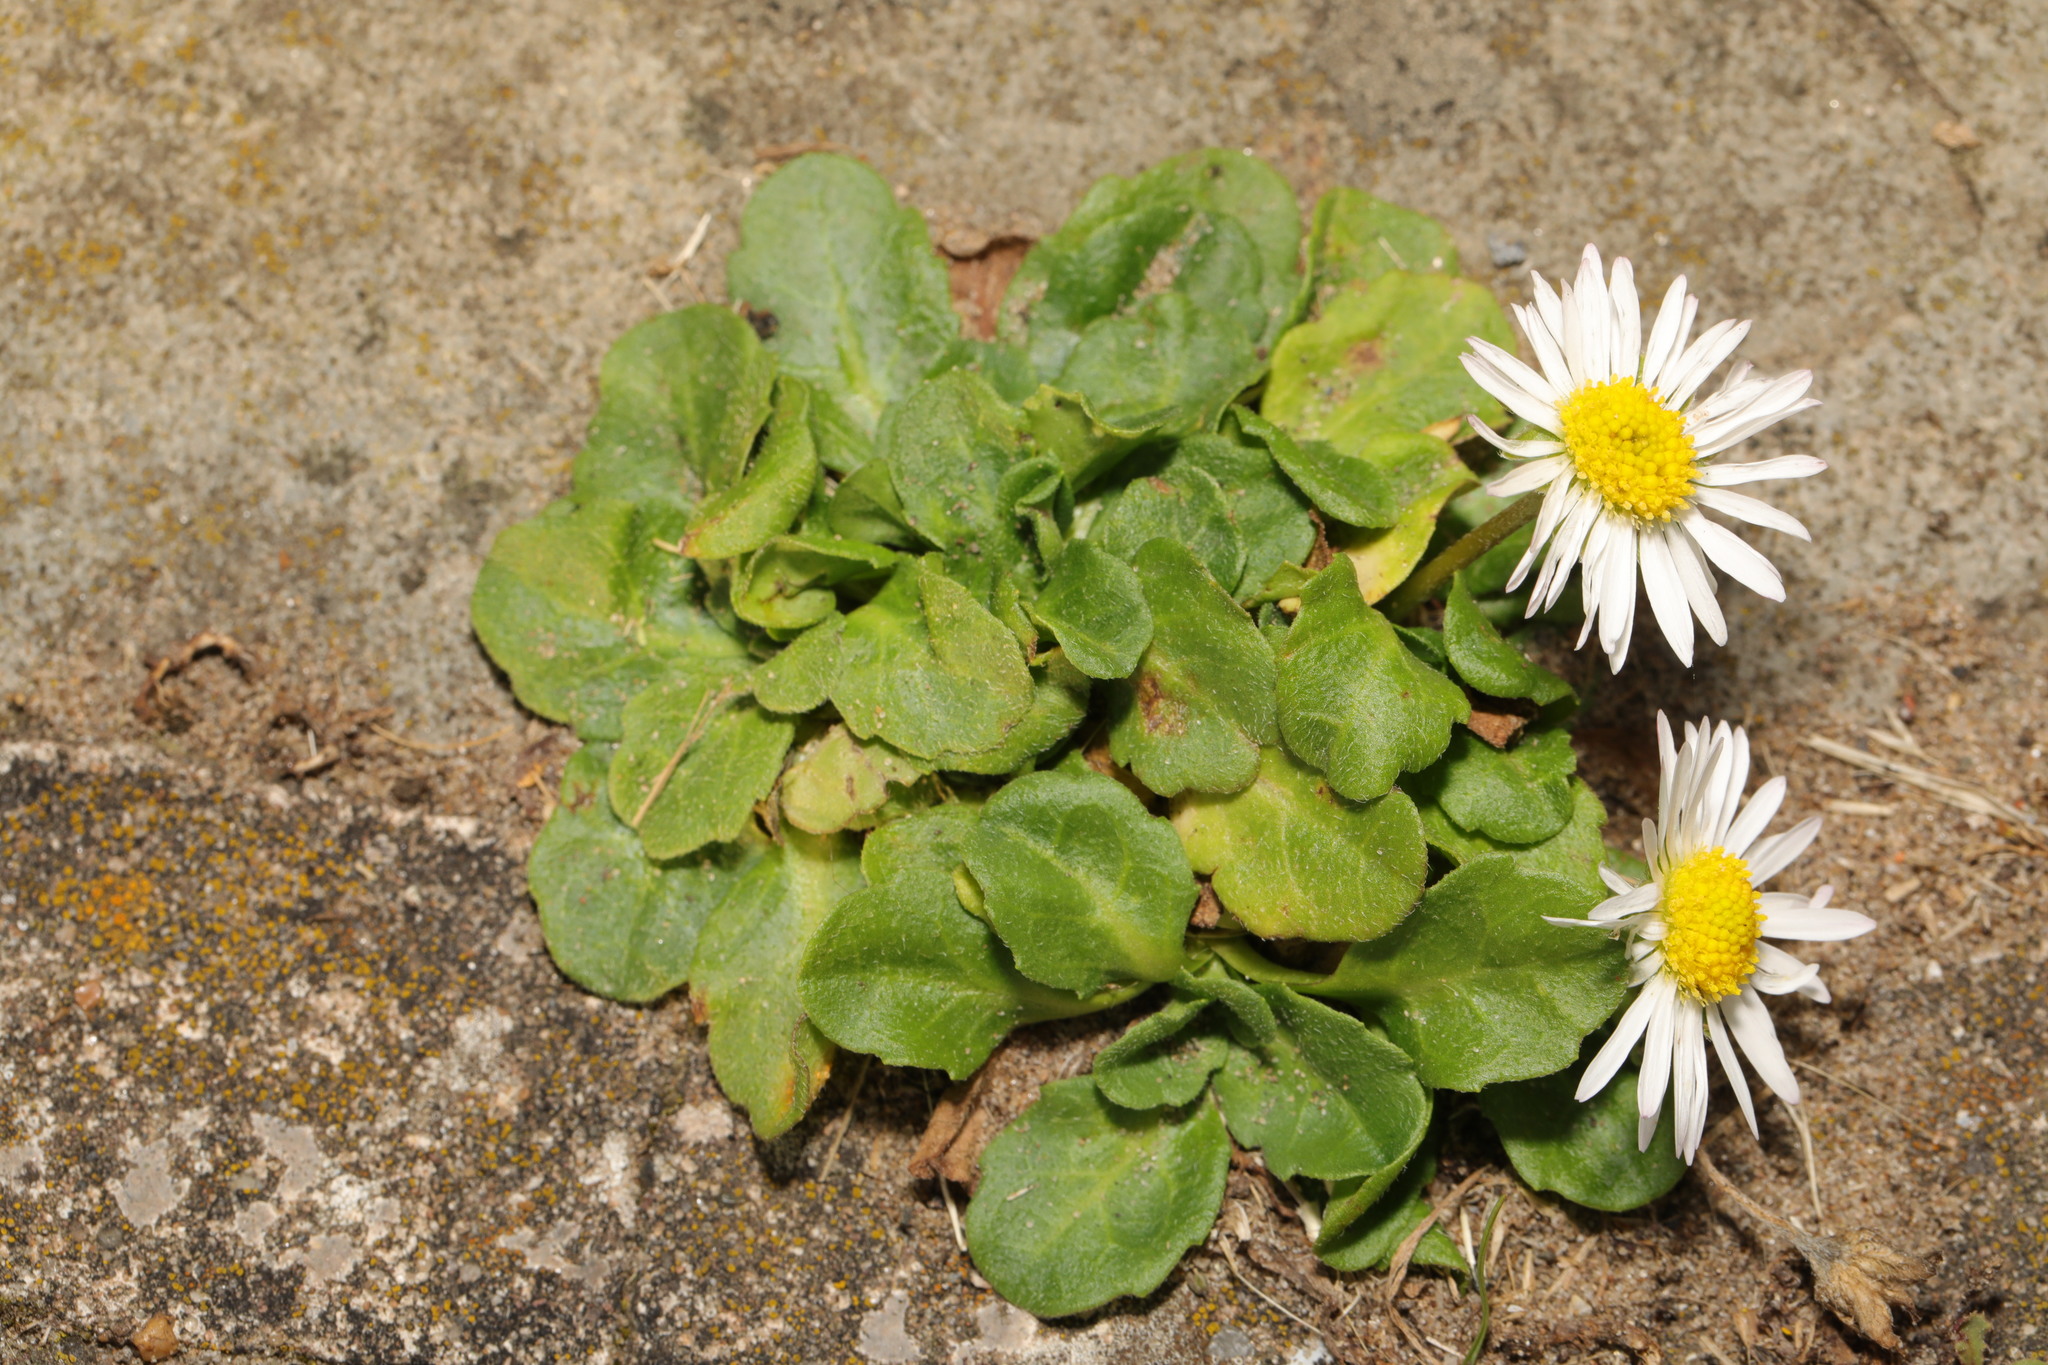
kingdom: Plantae
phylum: Tracheophyta
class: Magnoliopsida
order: Asterales
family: Asteraceae
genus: Bellis
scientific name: Bellis perennis
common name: Lawndaisy
